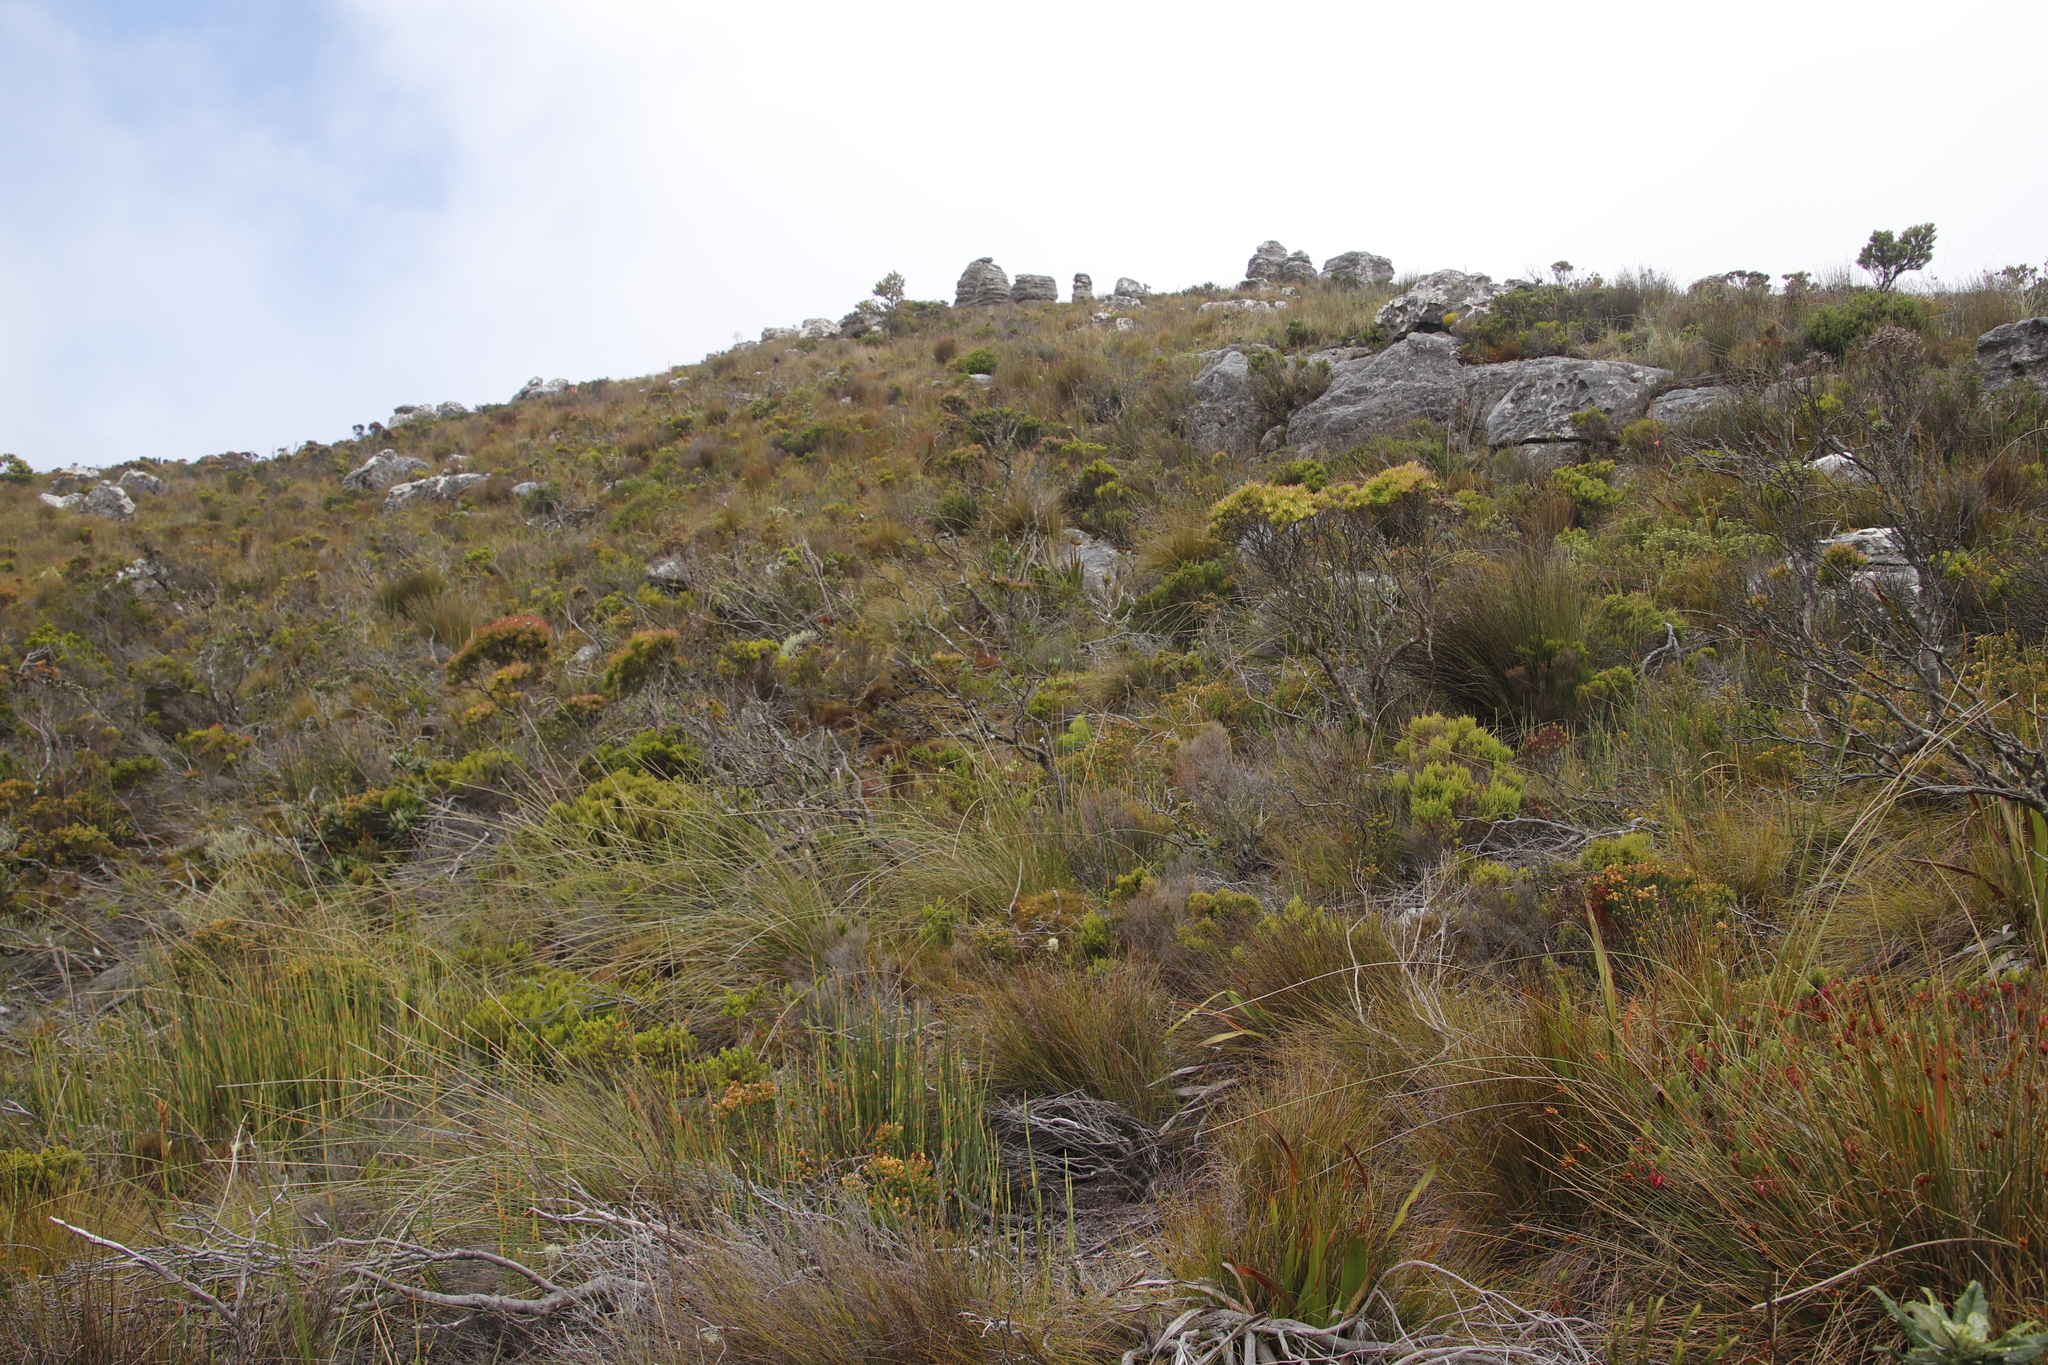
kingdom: Plantae
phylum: Tracheophyta
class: Liliopsida
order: Asparagales
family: Iridaceae
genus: Bobartia
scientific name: Bobartia indica
